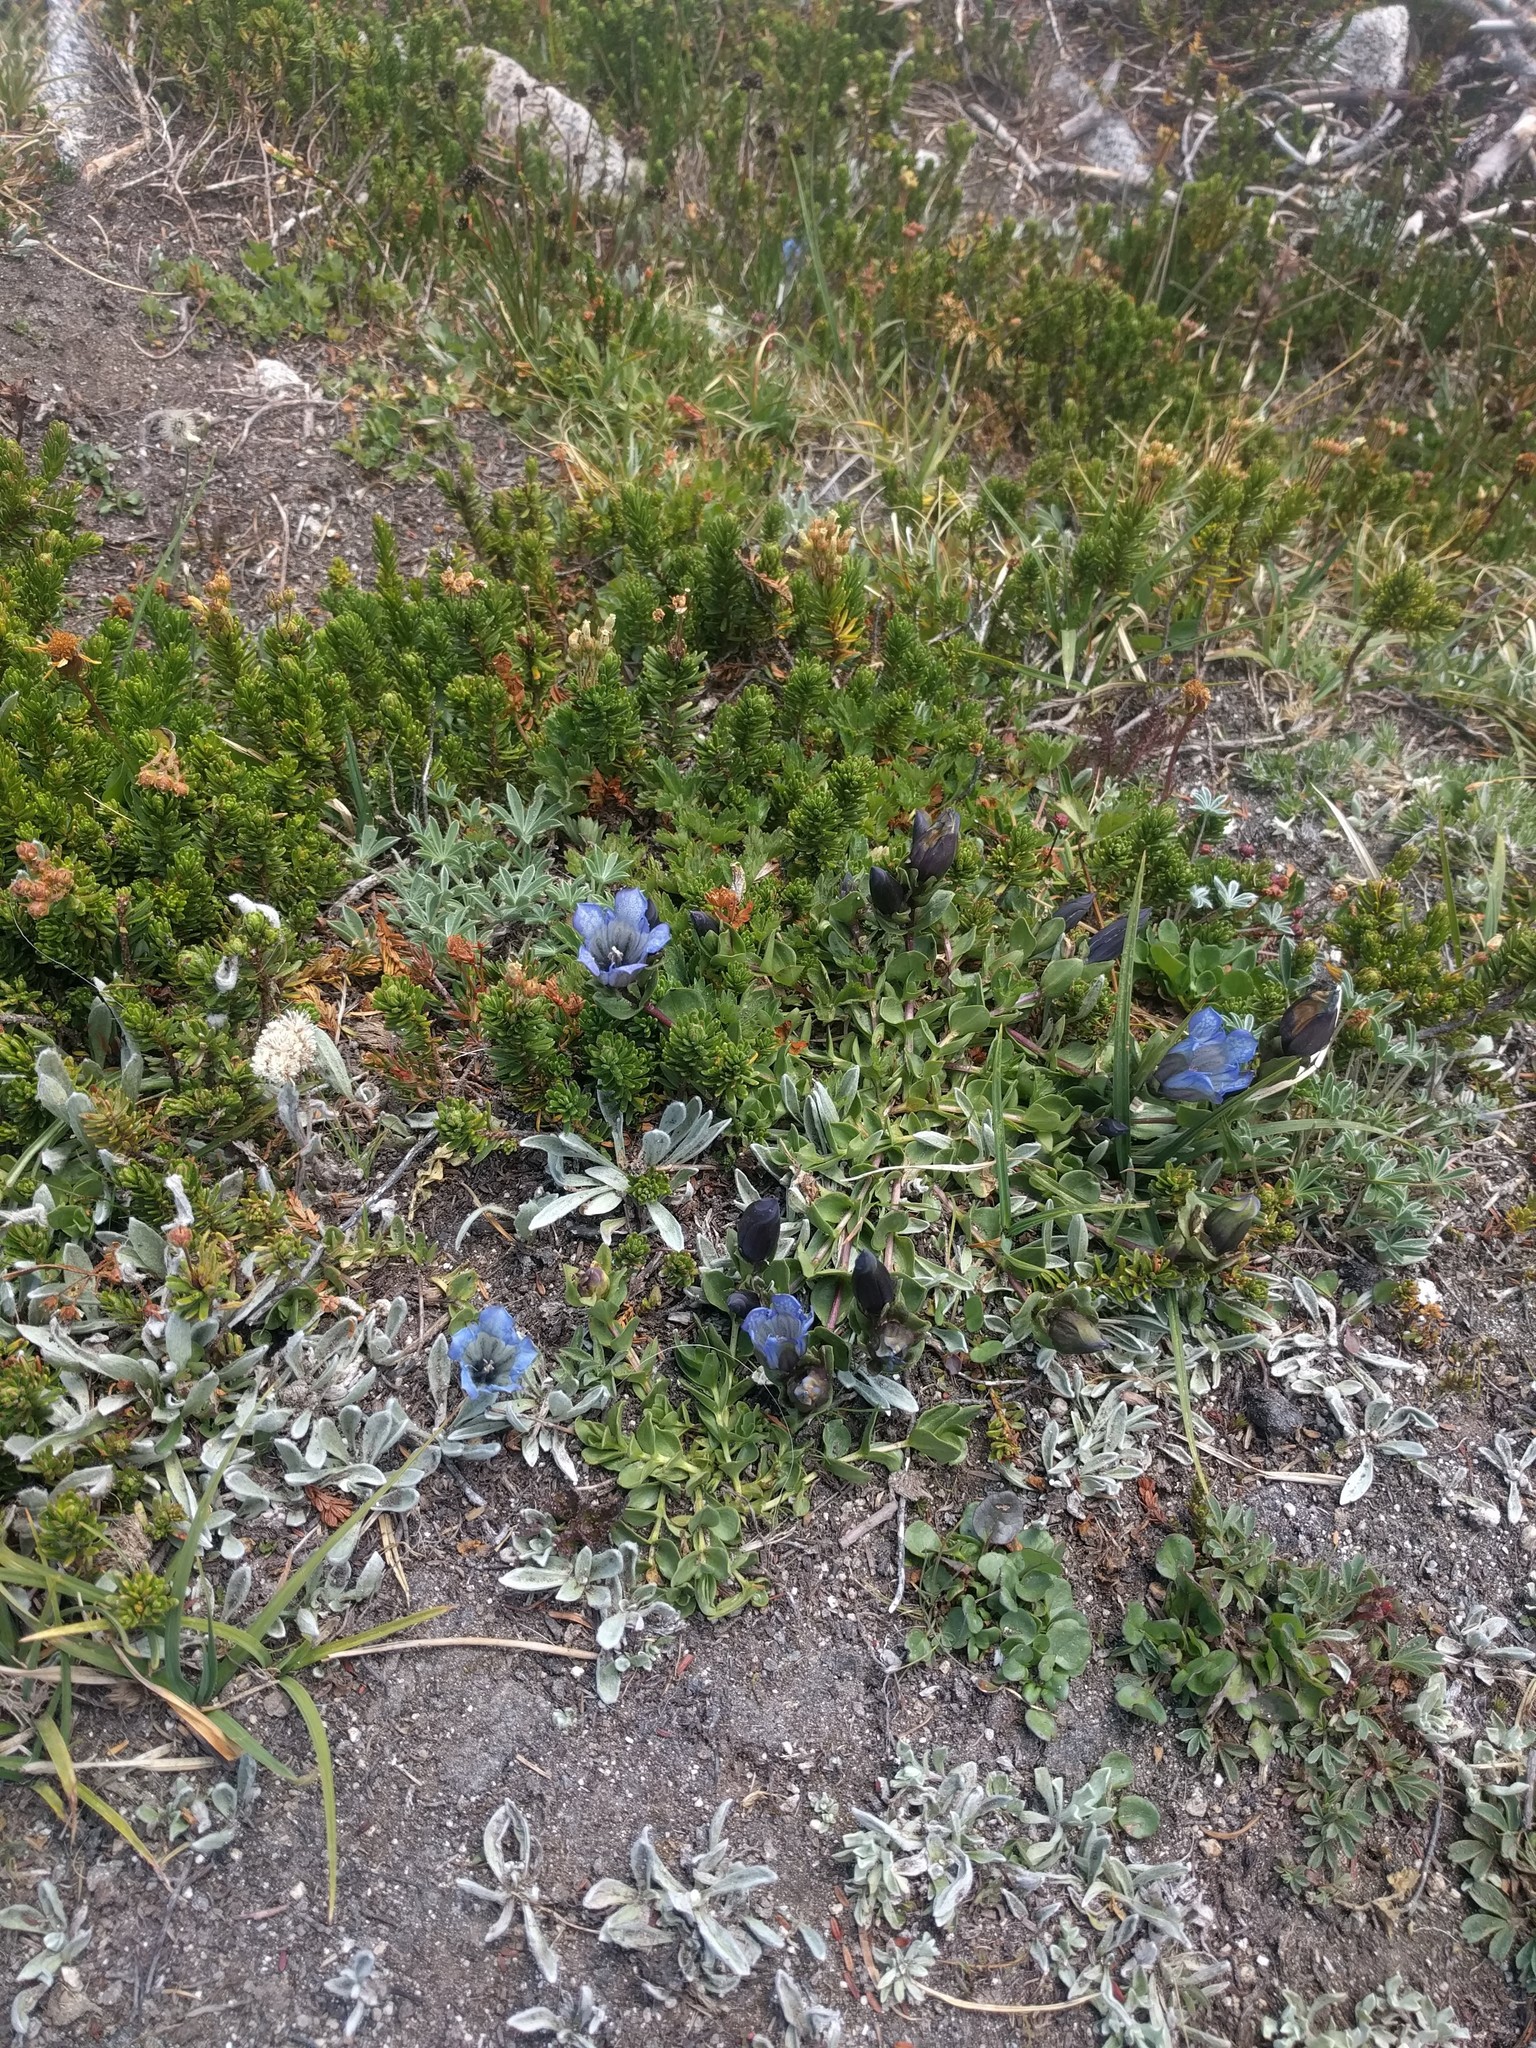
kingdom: Plantae
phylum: Tracheophyta
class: Magnoliopsida
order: Gentianales
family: Gentianaceae
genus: Gentiana
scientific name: Gentiana calycosa
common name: Rainier pleated gentian
